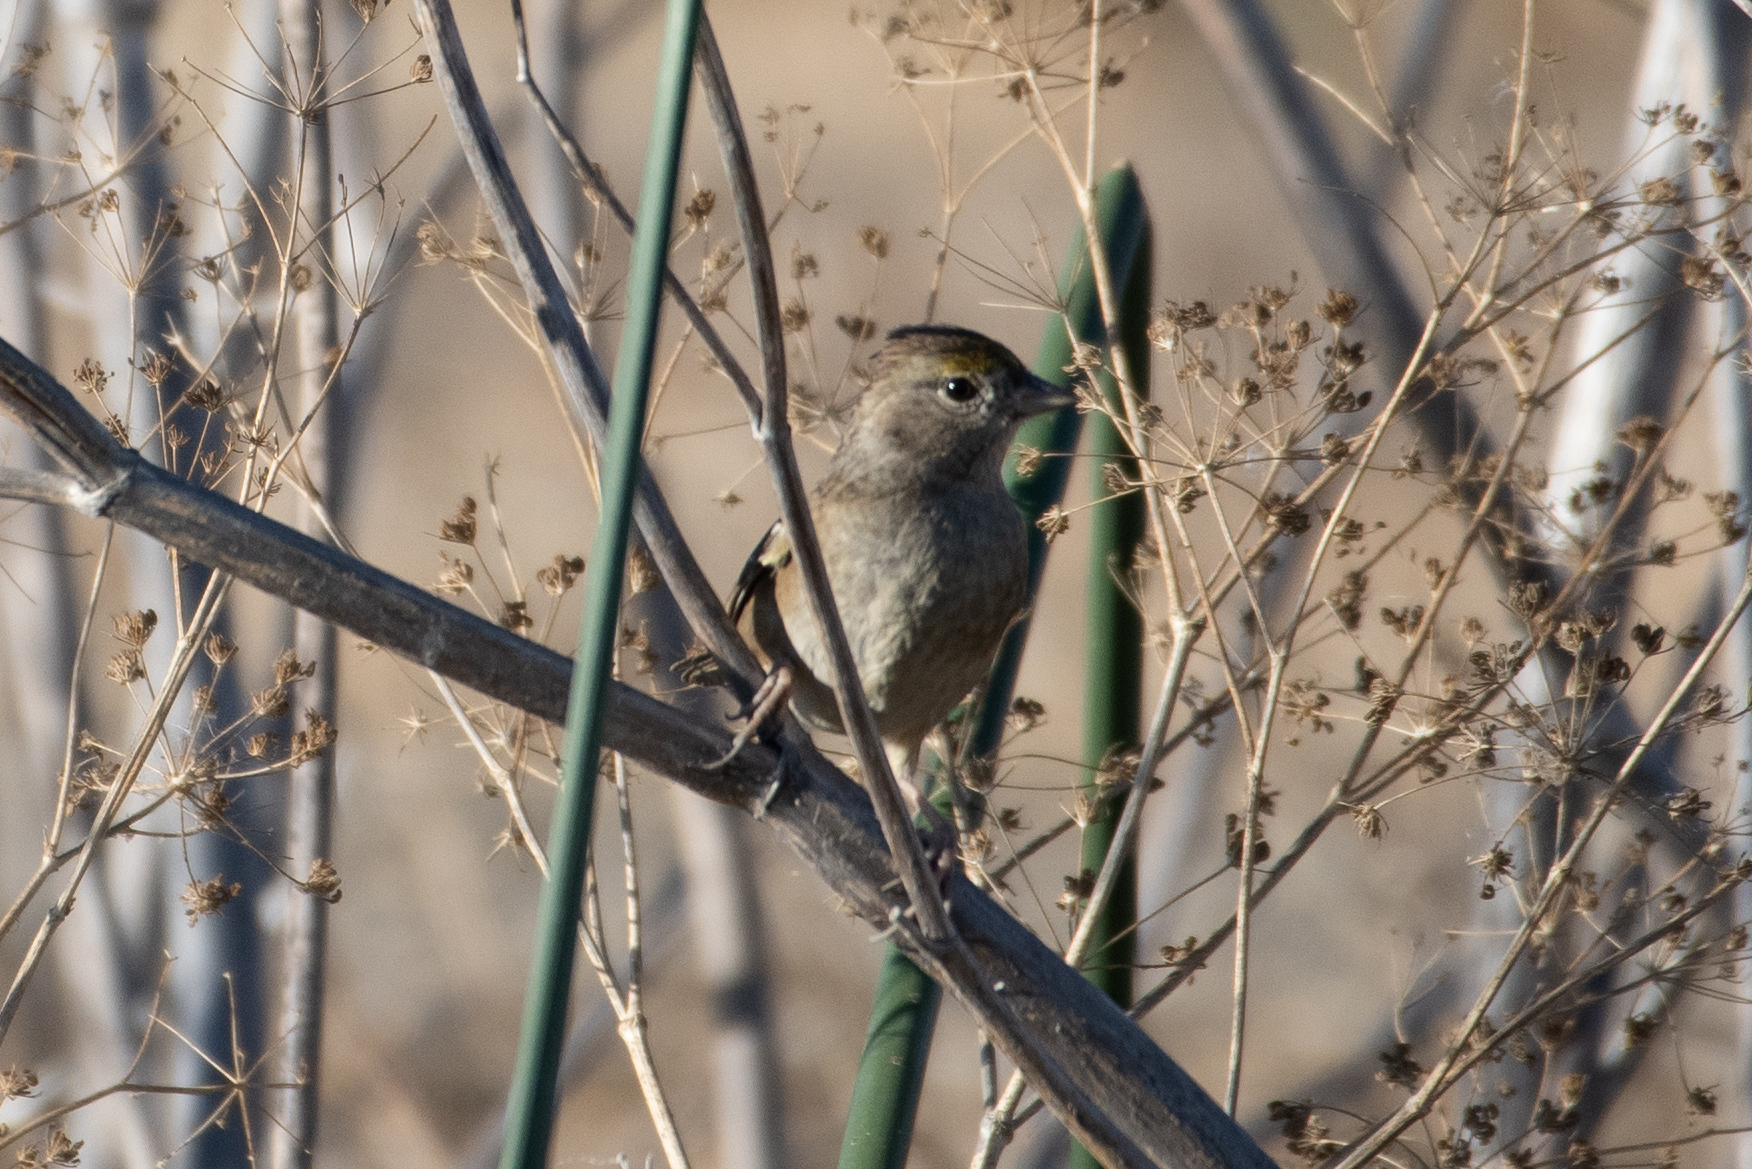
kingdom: Animalia
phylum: Chordata
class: Aves
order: Passeriformes
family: Passerellidae
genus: Zonotrichia
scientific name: Zonotrichia atricapilla
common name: Golden-crowned sparrow
